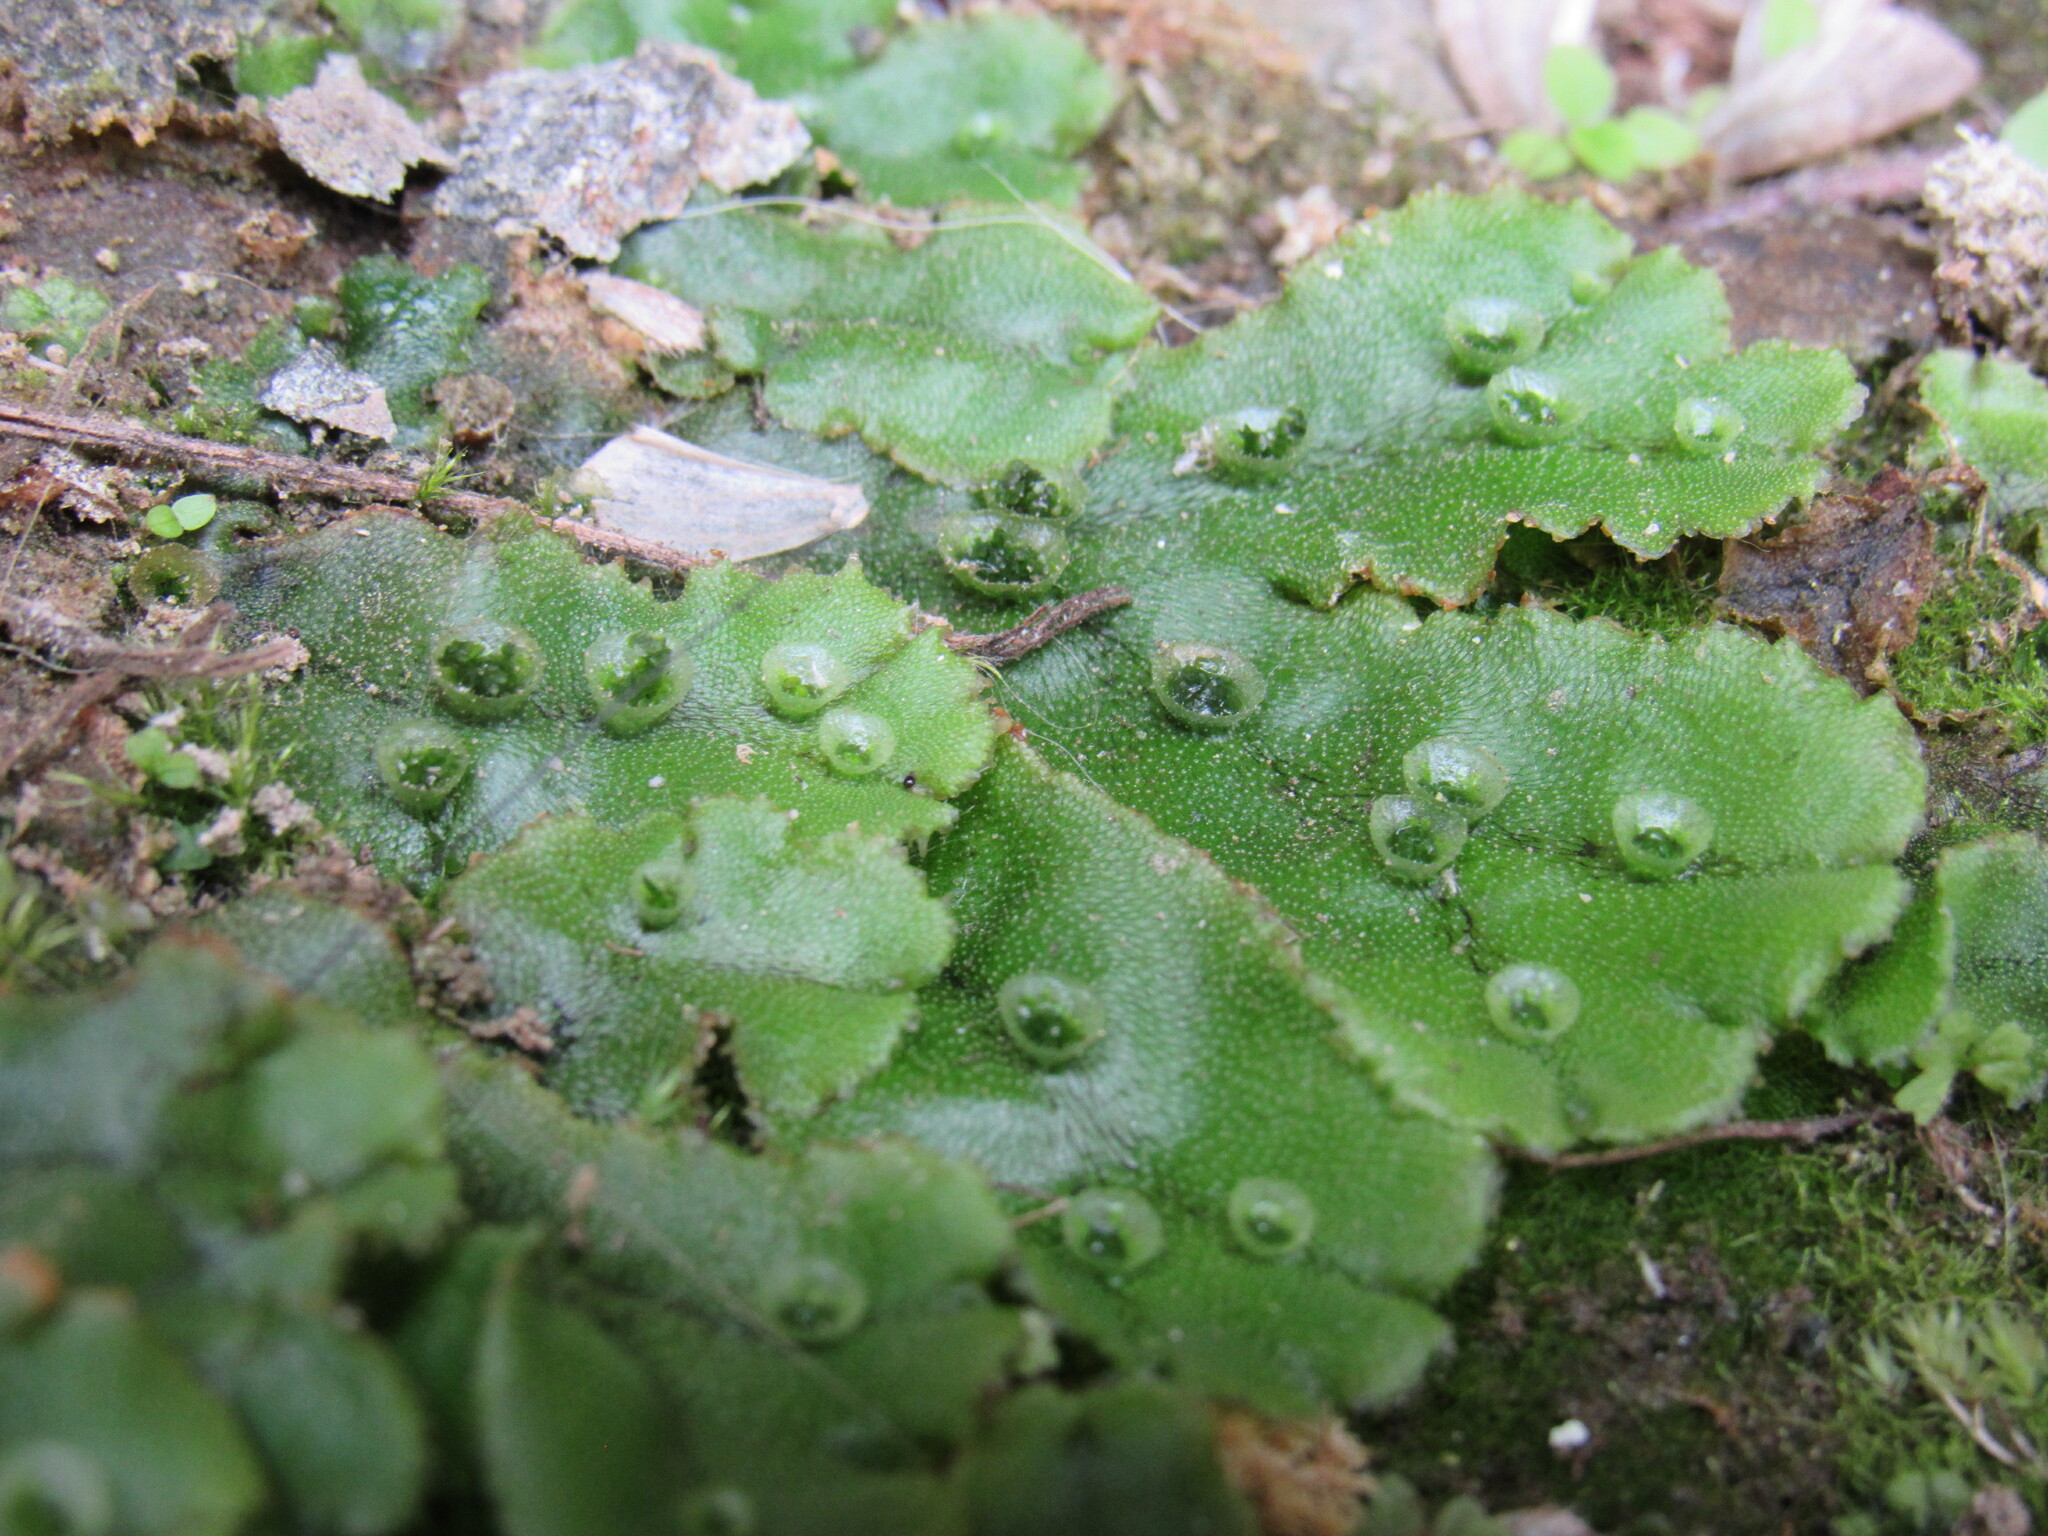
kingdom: Plantae
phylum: Marchantiophyta
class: Marchantiopsida
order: Marchantiales
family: Marchantiaceae
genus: Marchantia
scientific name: Marchantia polymorpha
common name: Common liverwort
